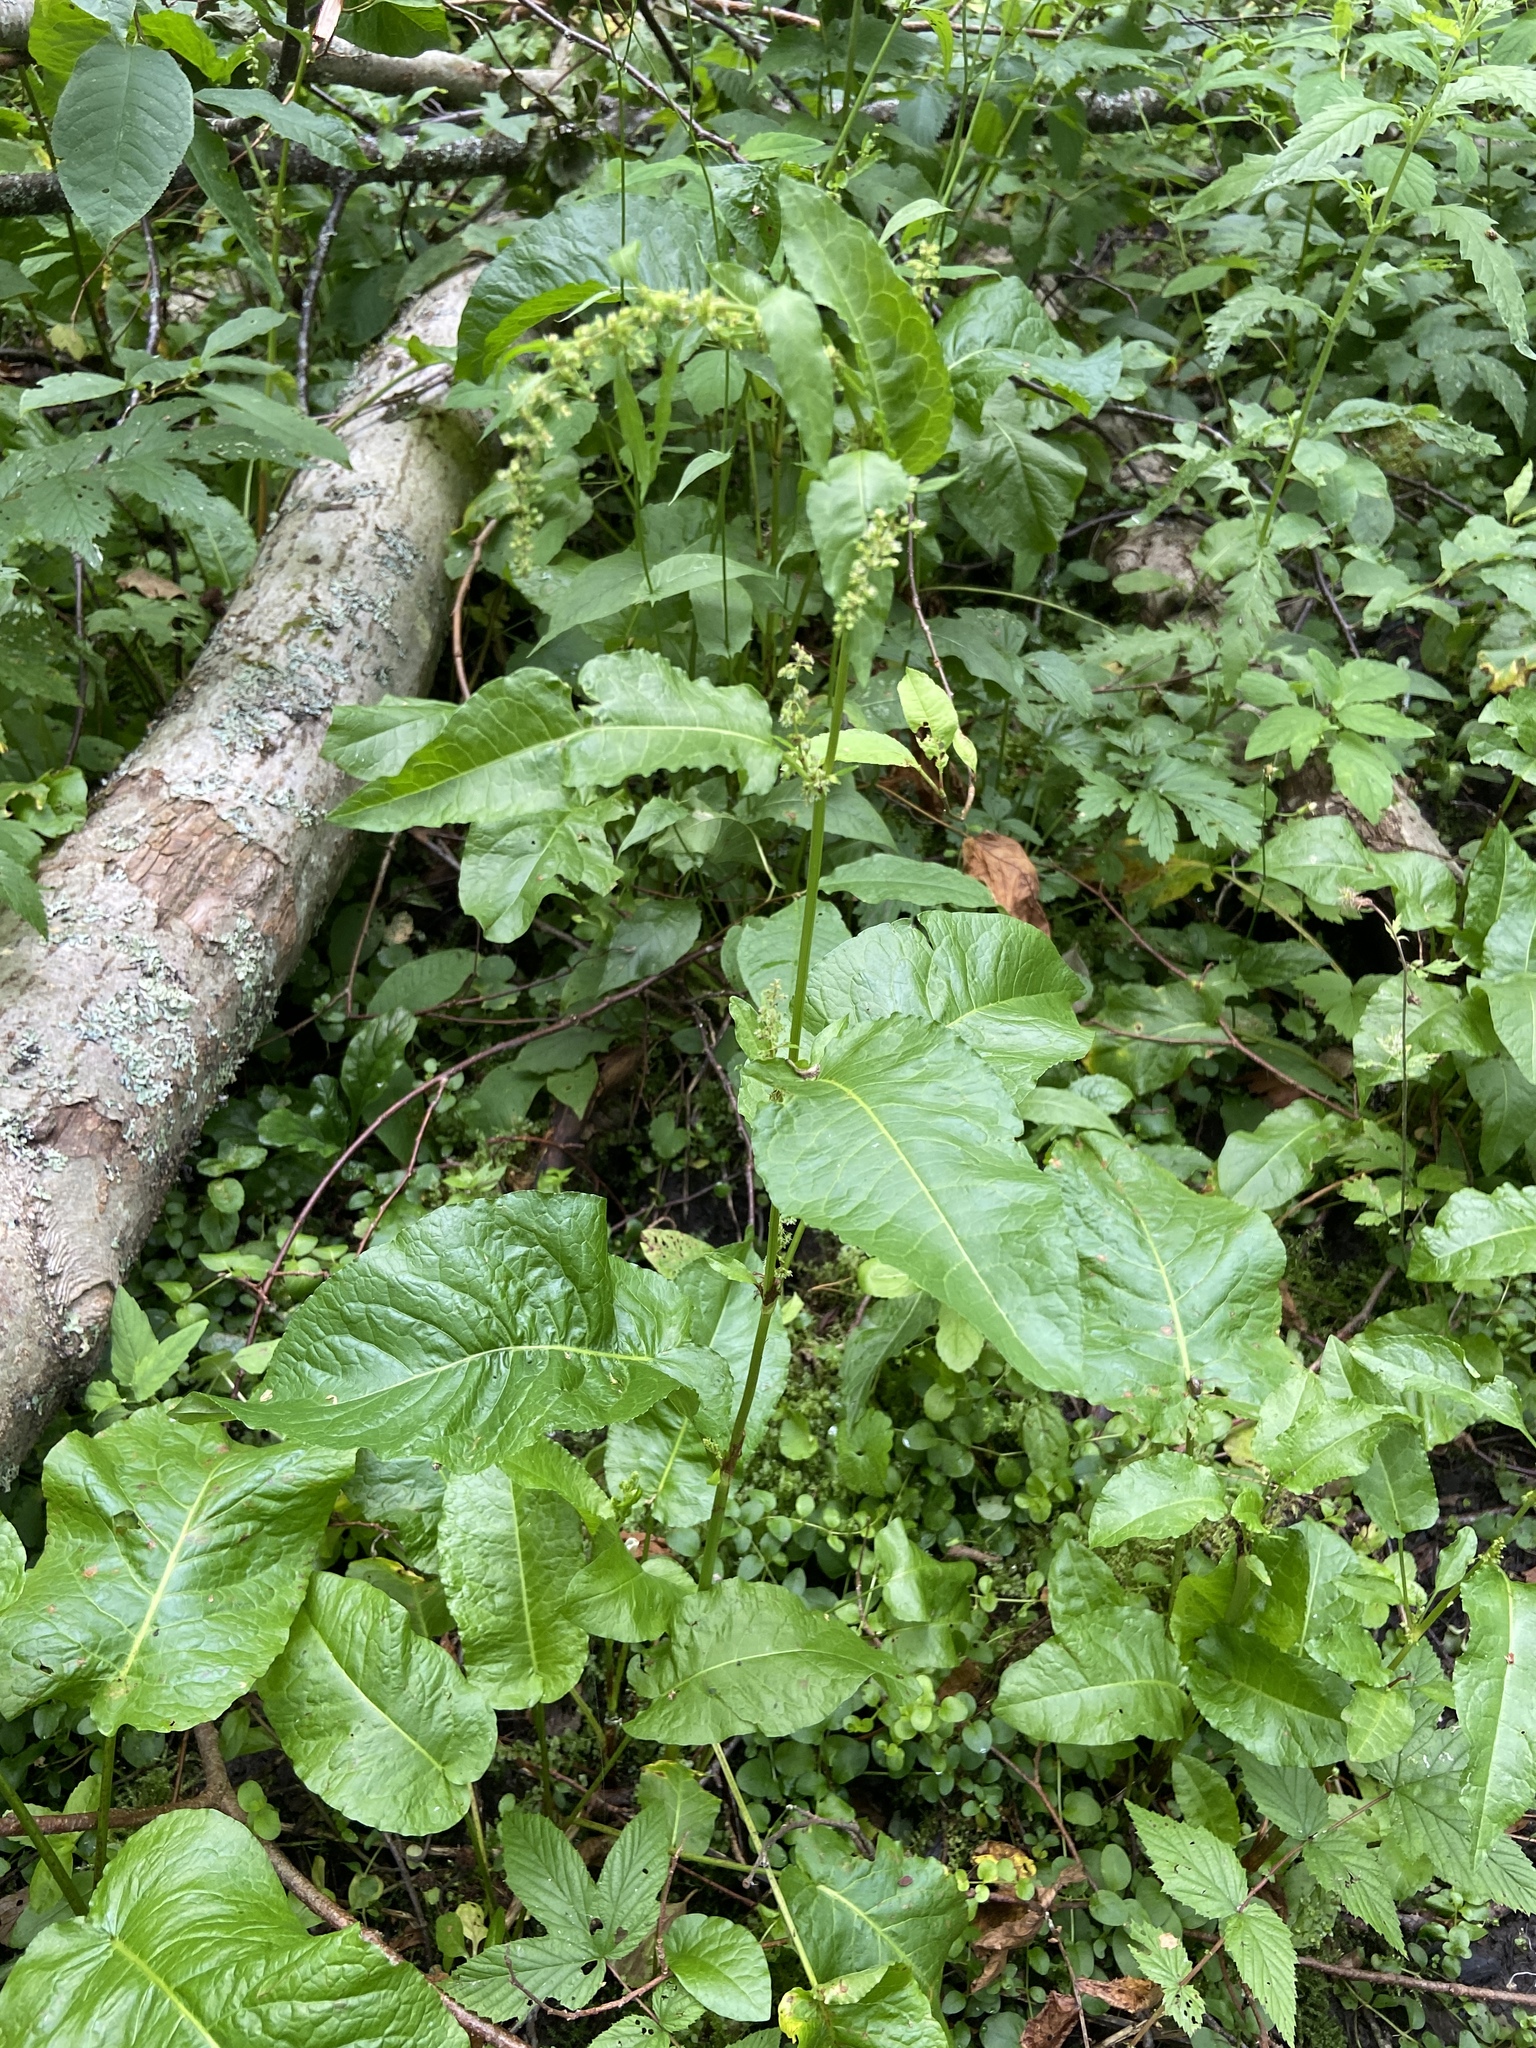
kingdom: Plantae
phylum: Tracheophyta
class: Magnoliopsida
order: Caryophyllales
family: Polygonaceae
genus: Rumex
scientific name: Rumex obtusifolius
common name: Bitter dock
